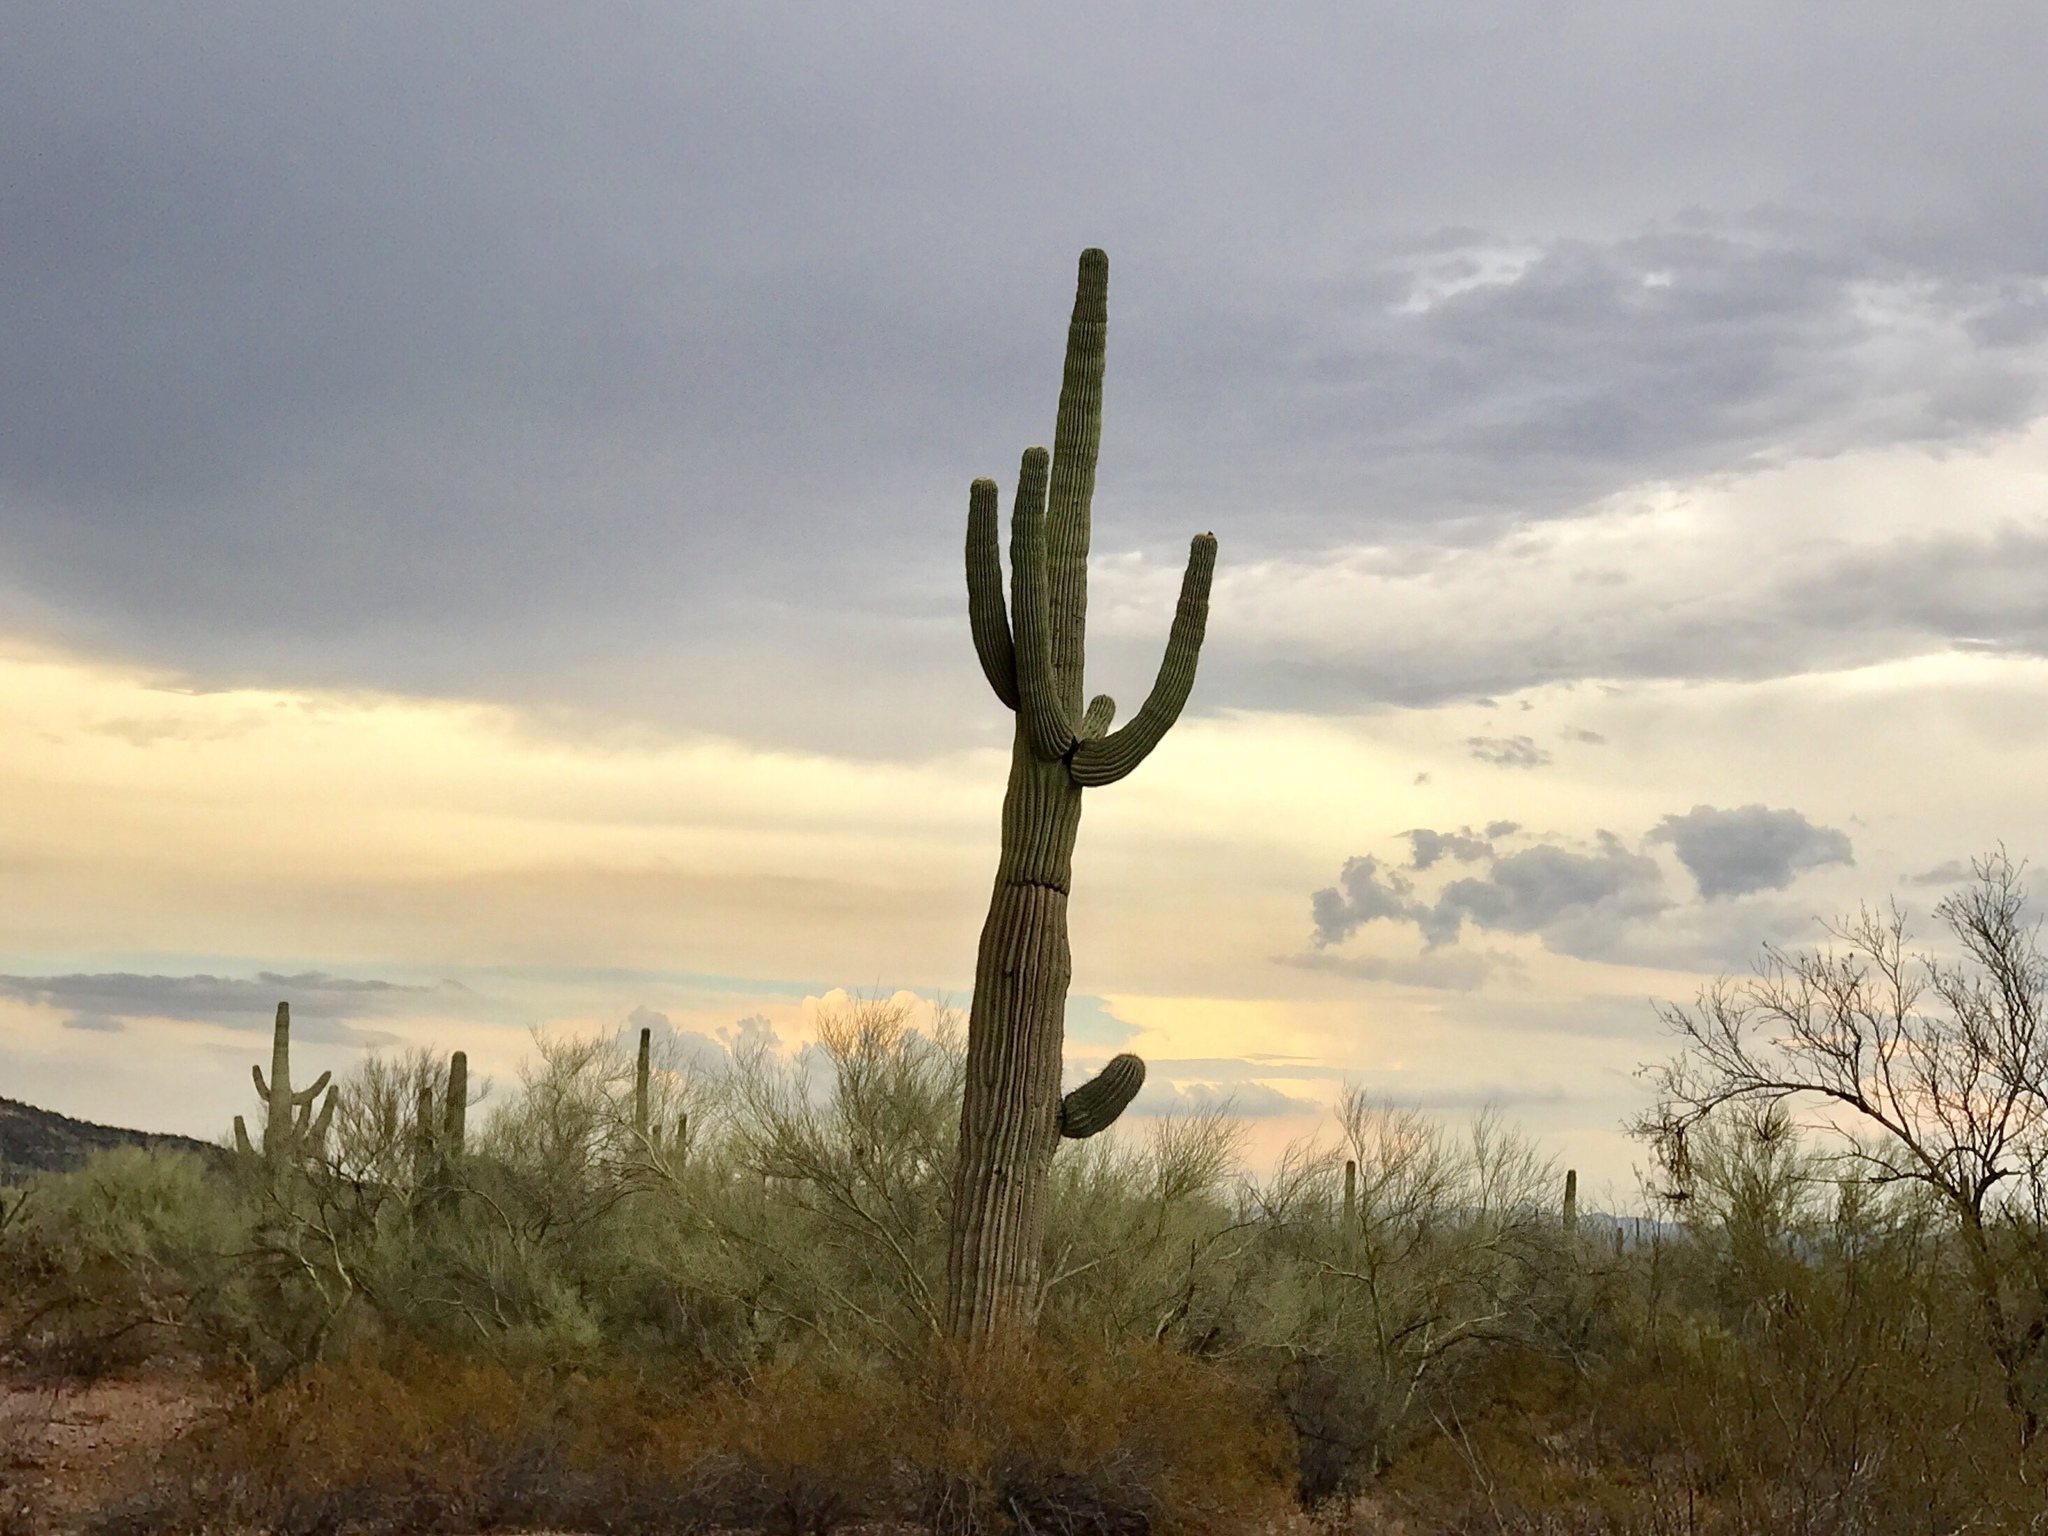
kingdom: Plantae
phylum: Tracheophyta
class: Magnoliopsida
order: Caryophyllales
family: Cactaceae
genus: Carnegiea
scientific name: Carnegiea gigantea
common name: Saguaro
